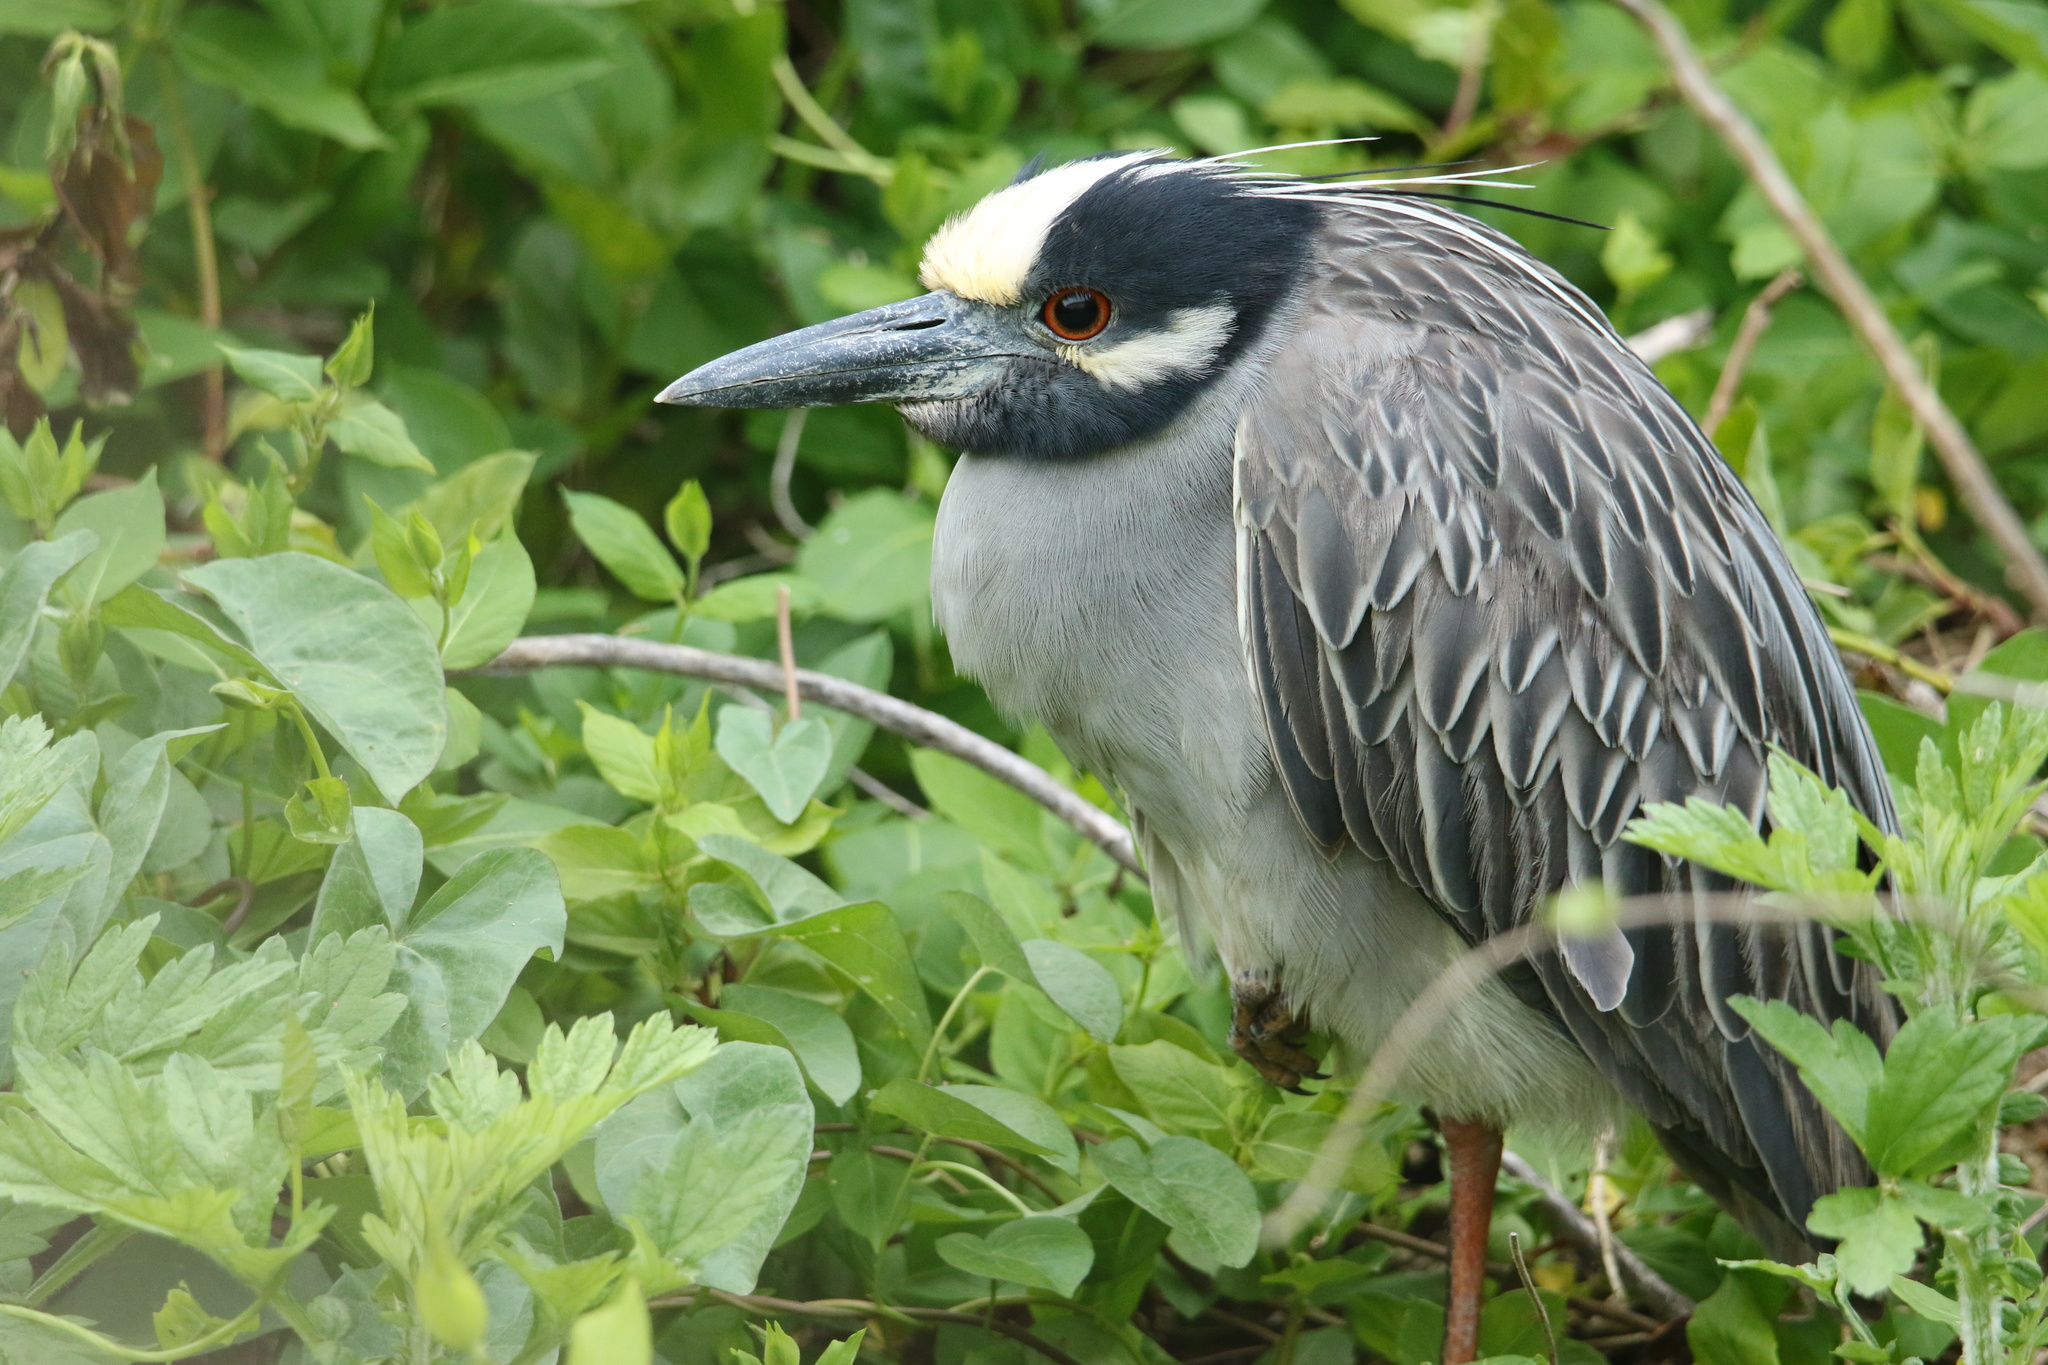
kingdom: Animalia
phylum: Chordata
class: Aves
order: Pelecaniformes
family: Ardeidae
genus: Nyctanassa
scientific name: Nyctanassa violacea
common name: Yellow-crowned night heron
